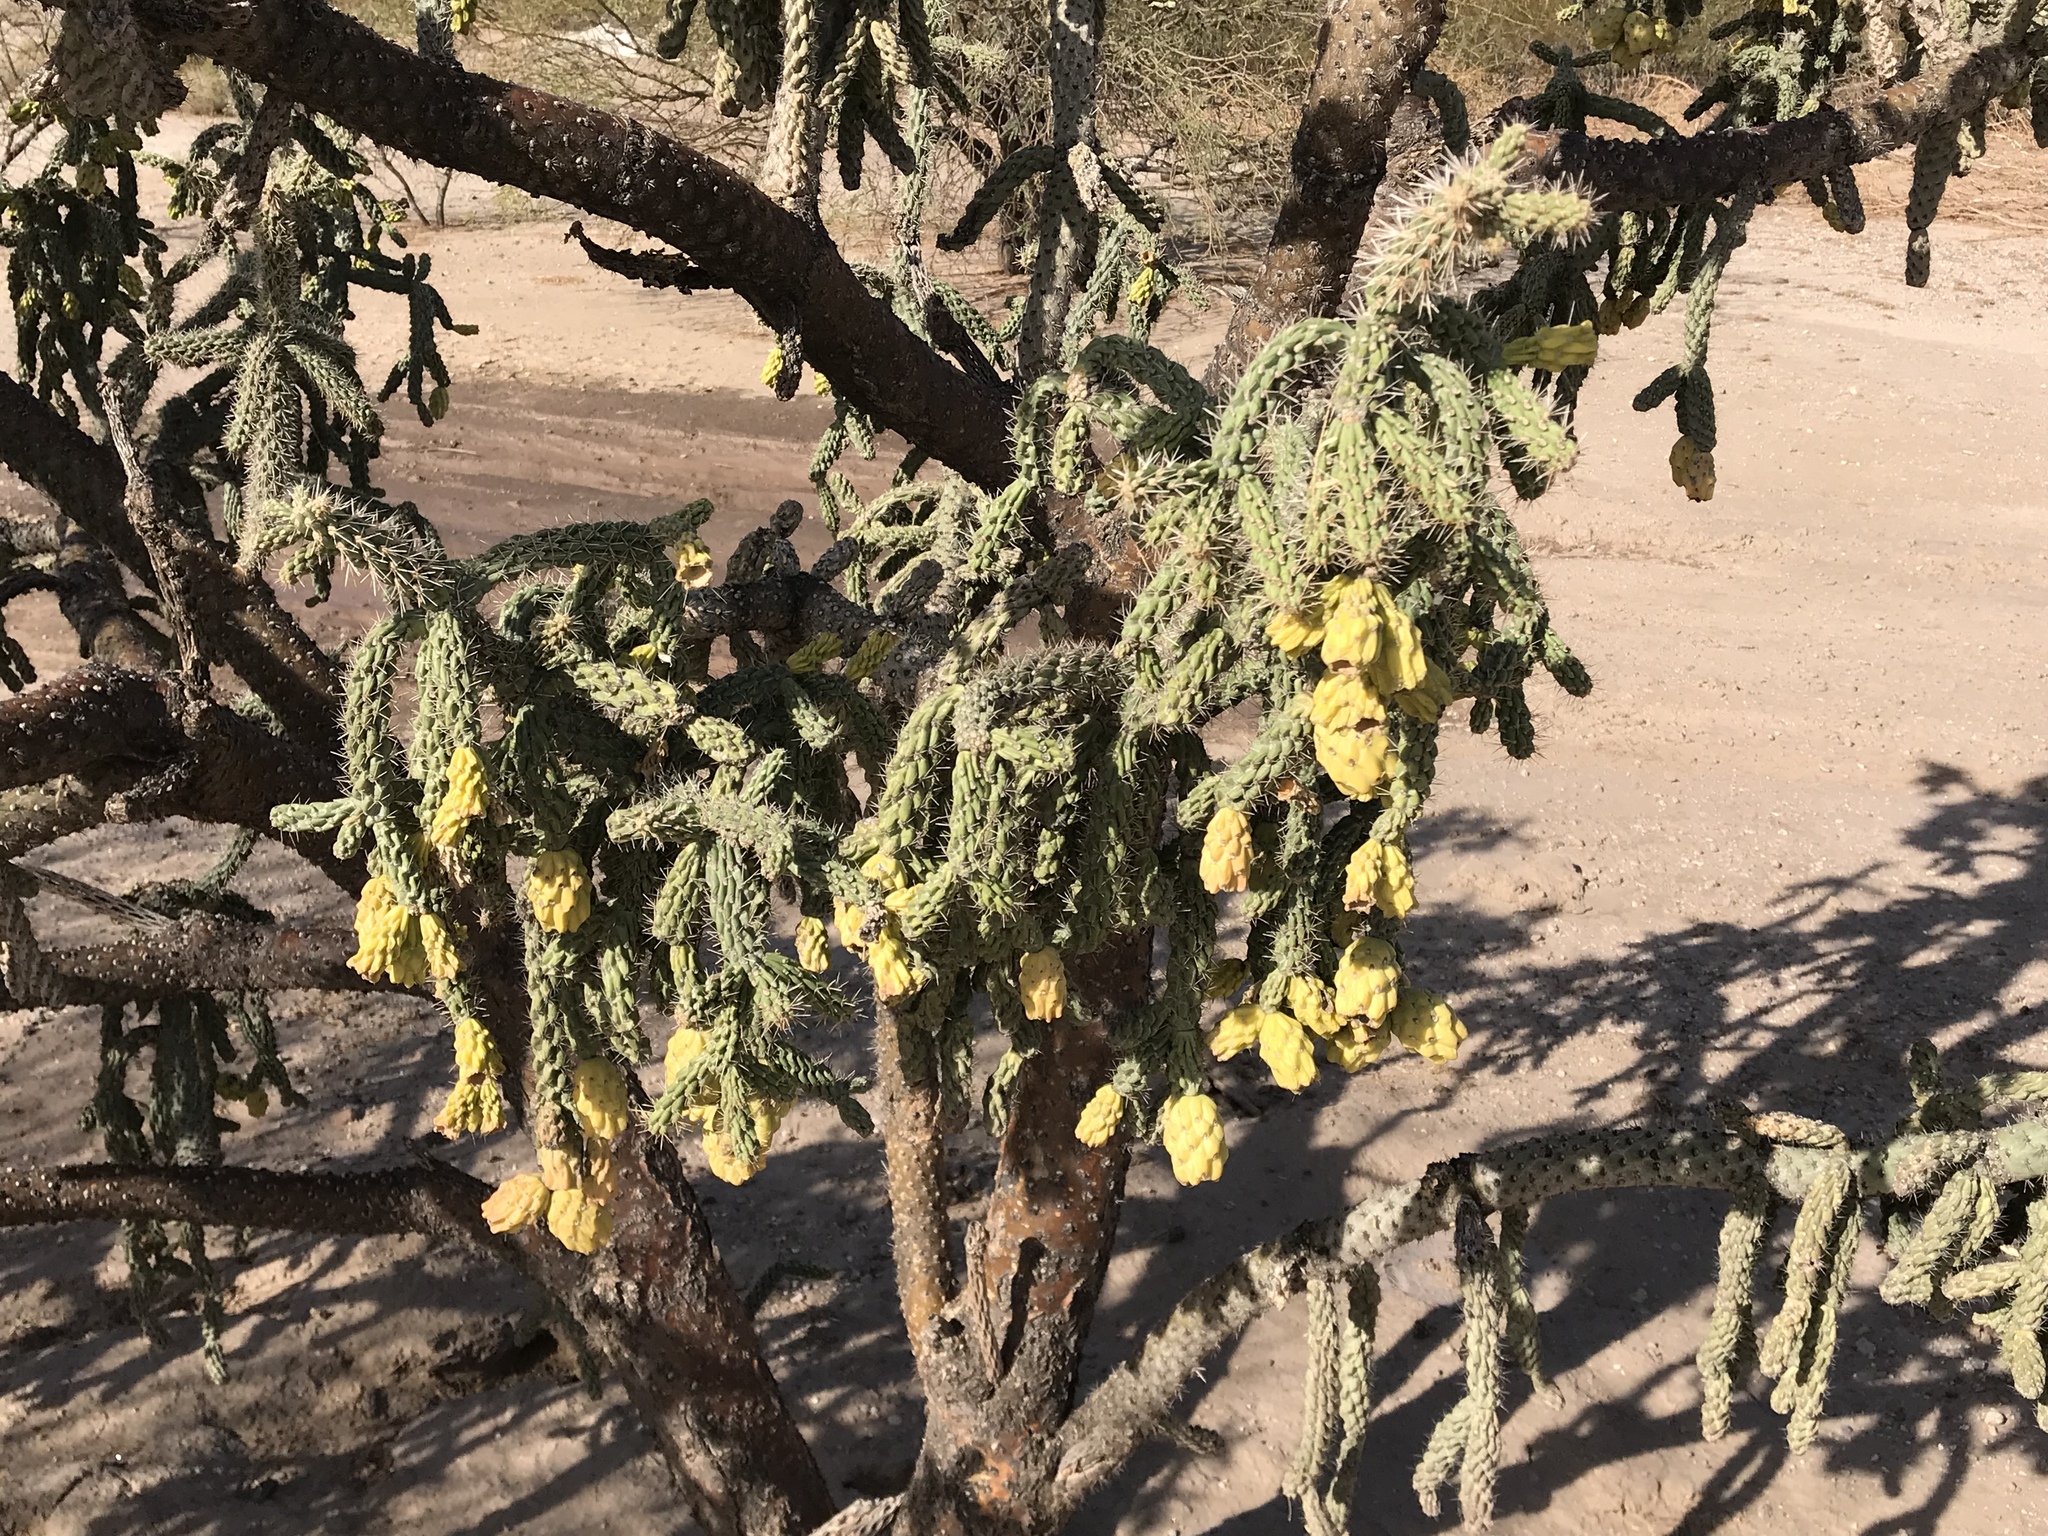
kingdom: Plantae
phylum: Tracheophyta
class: Magnoliopsida
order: Caryophyllales
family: Cactaceae
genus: Cylindropuntia
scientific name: Cylindropuntia kelvinensis
